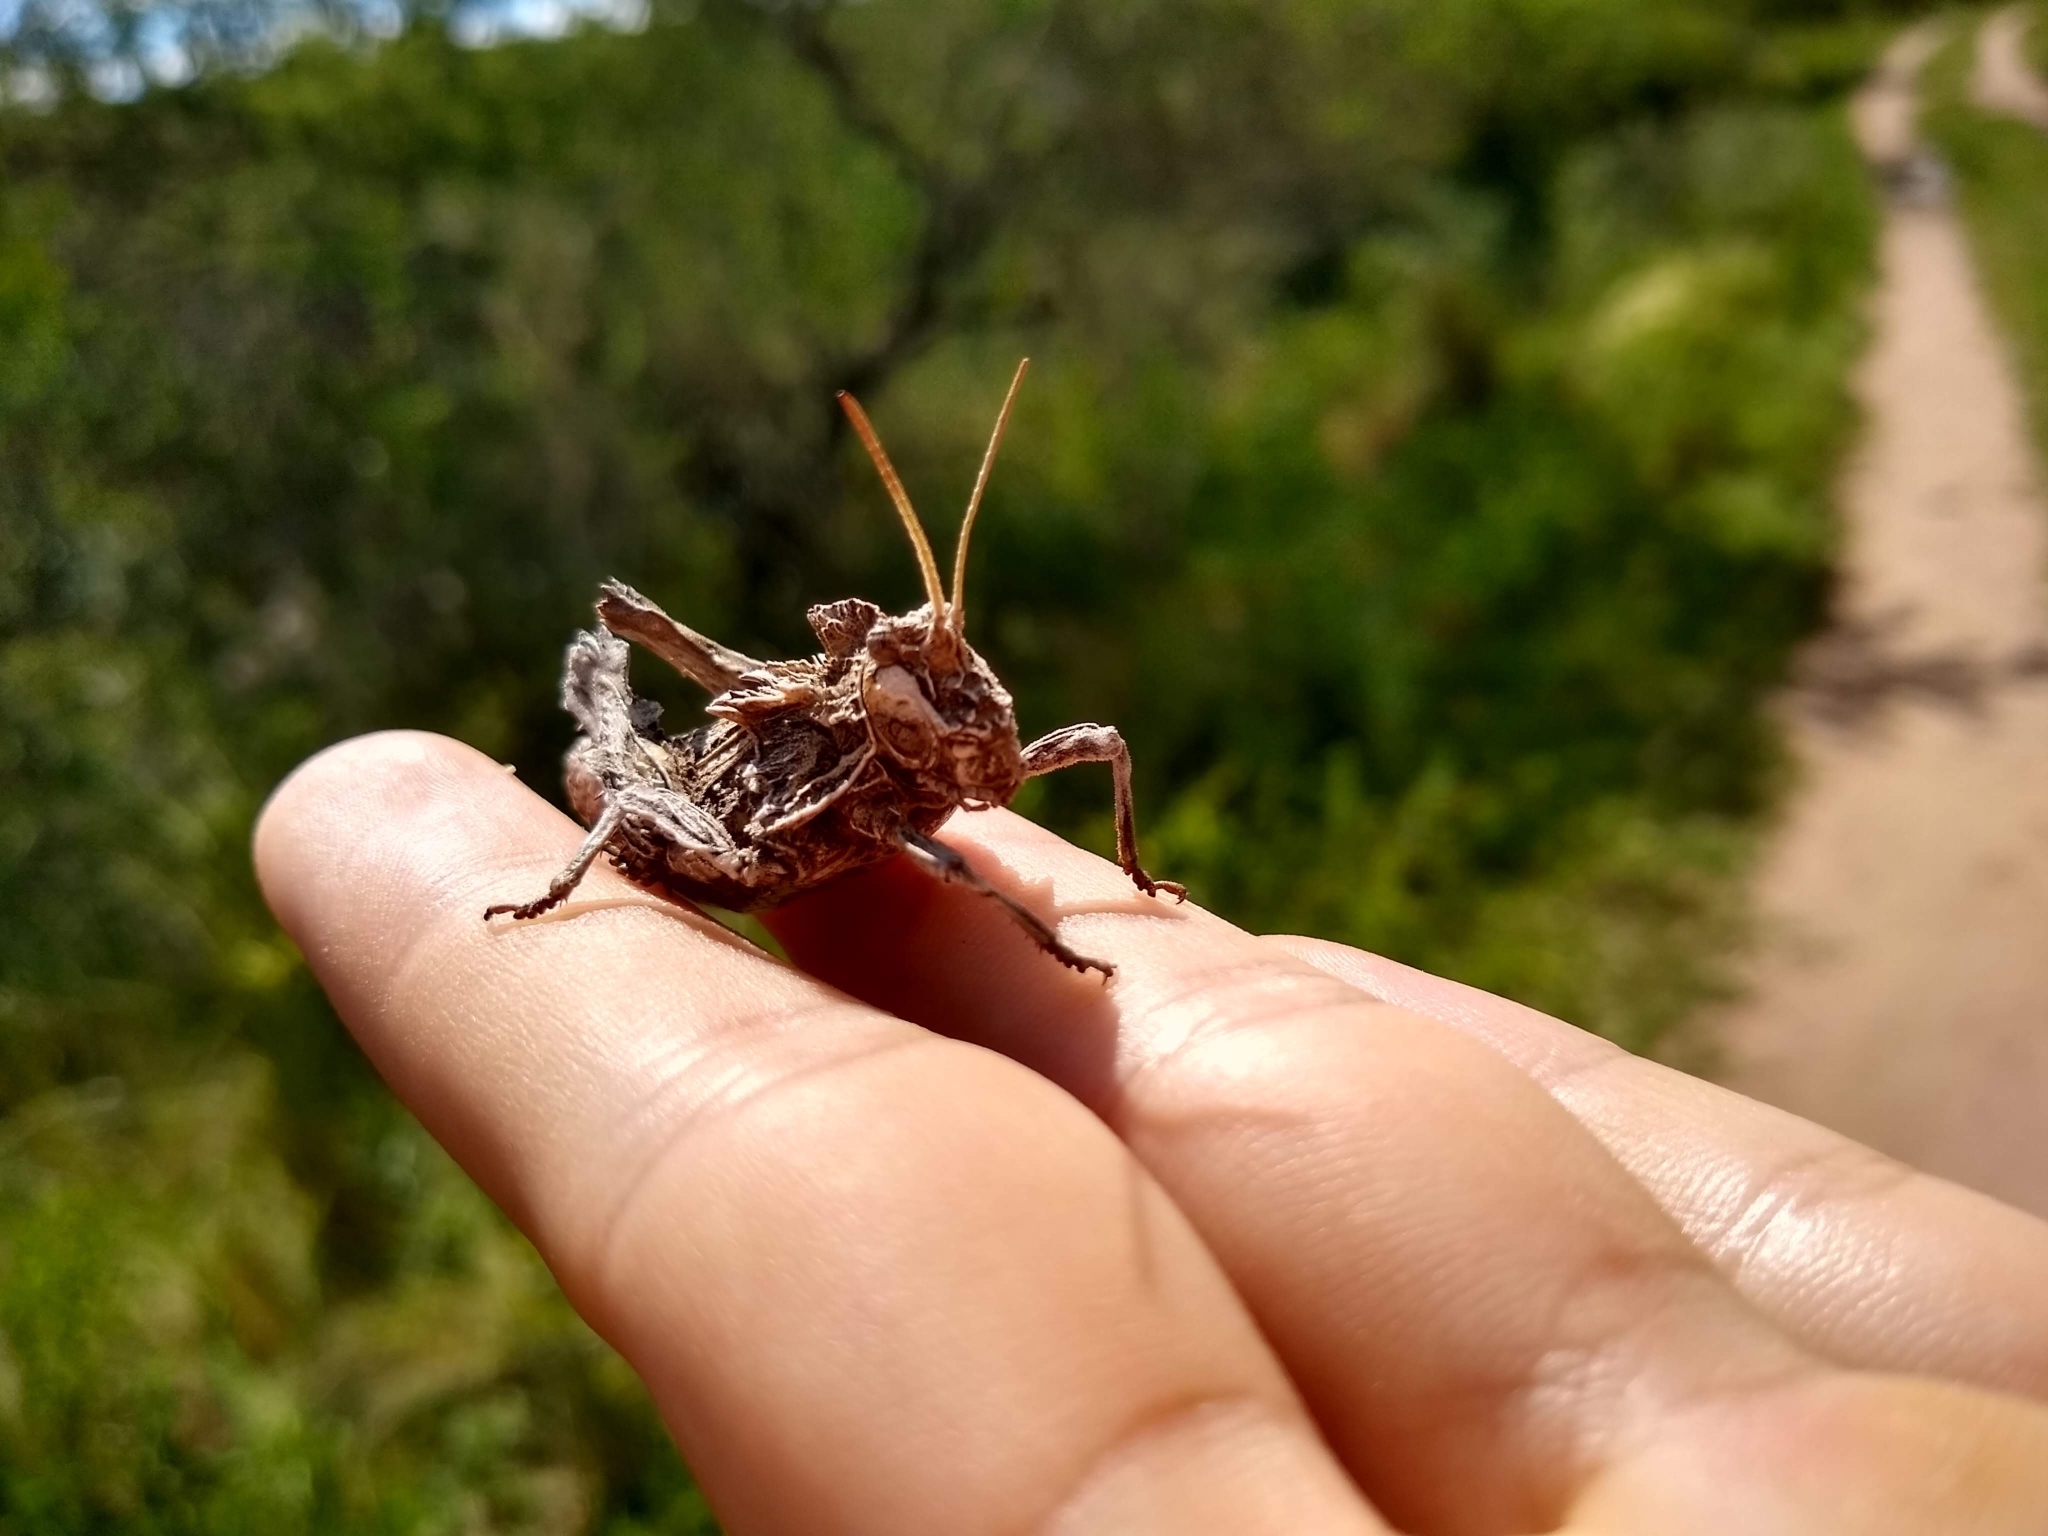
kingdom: Animalia
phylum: Arthropoda
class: Insecta
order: Orthoptera
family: Ommexechidae
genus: Spathalium
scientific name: Spathalium audouinii
